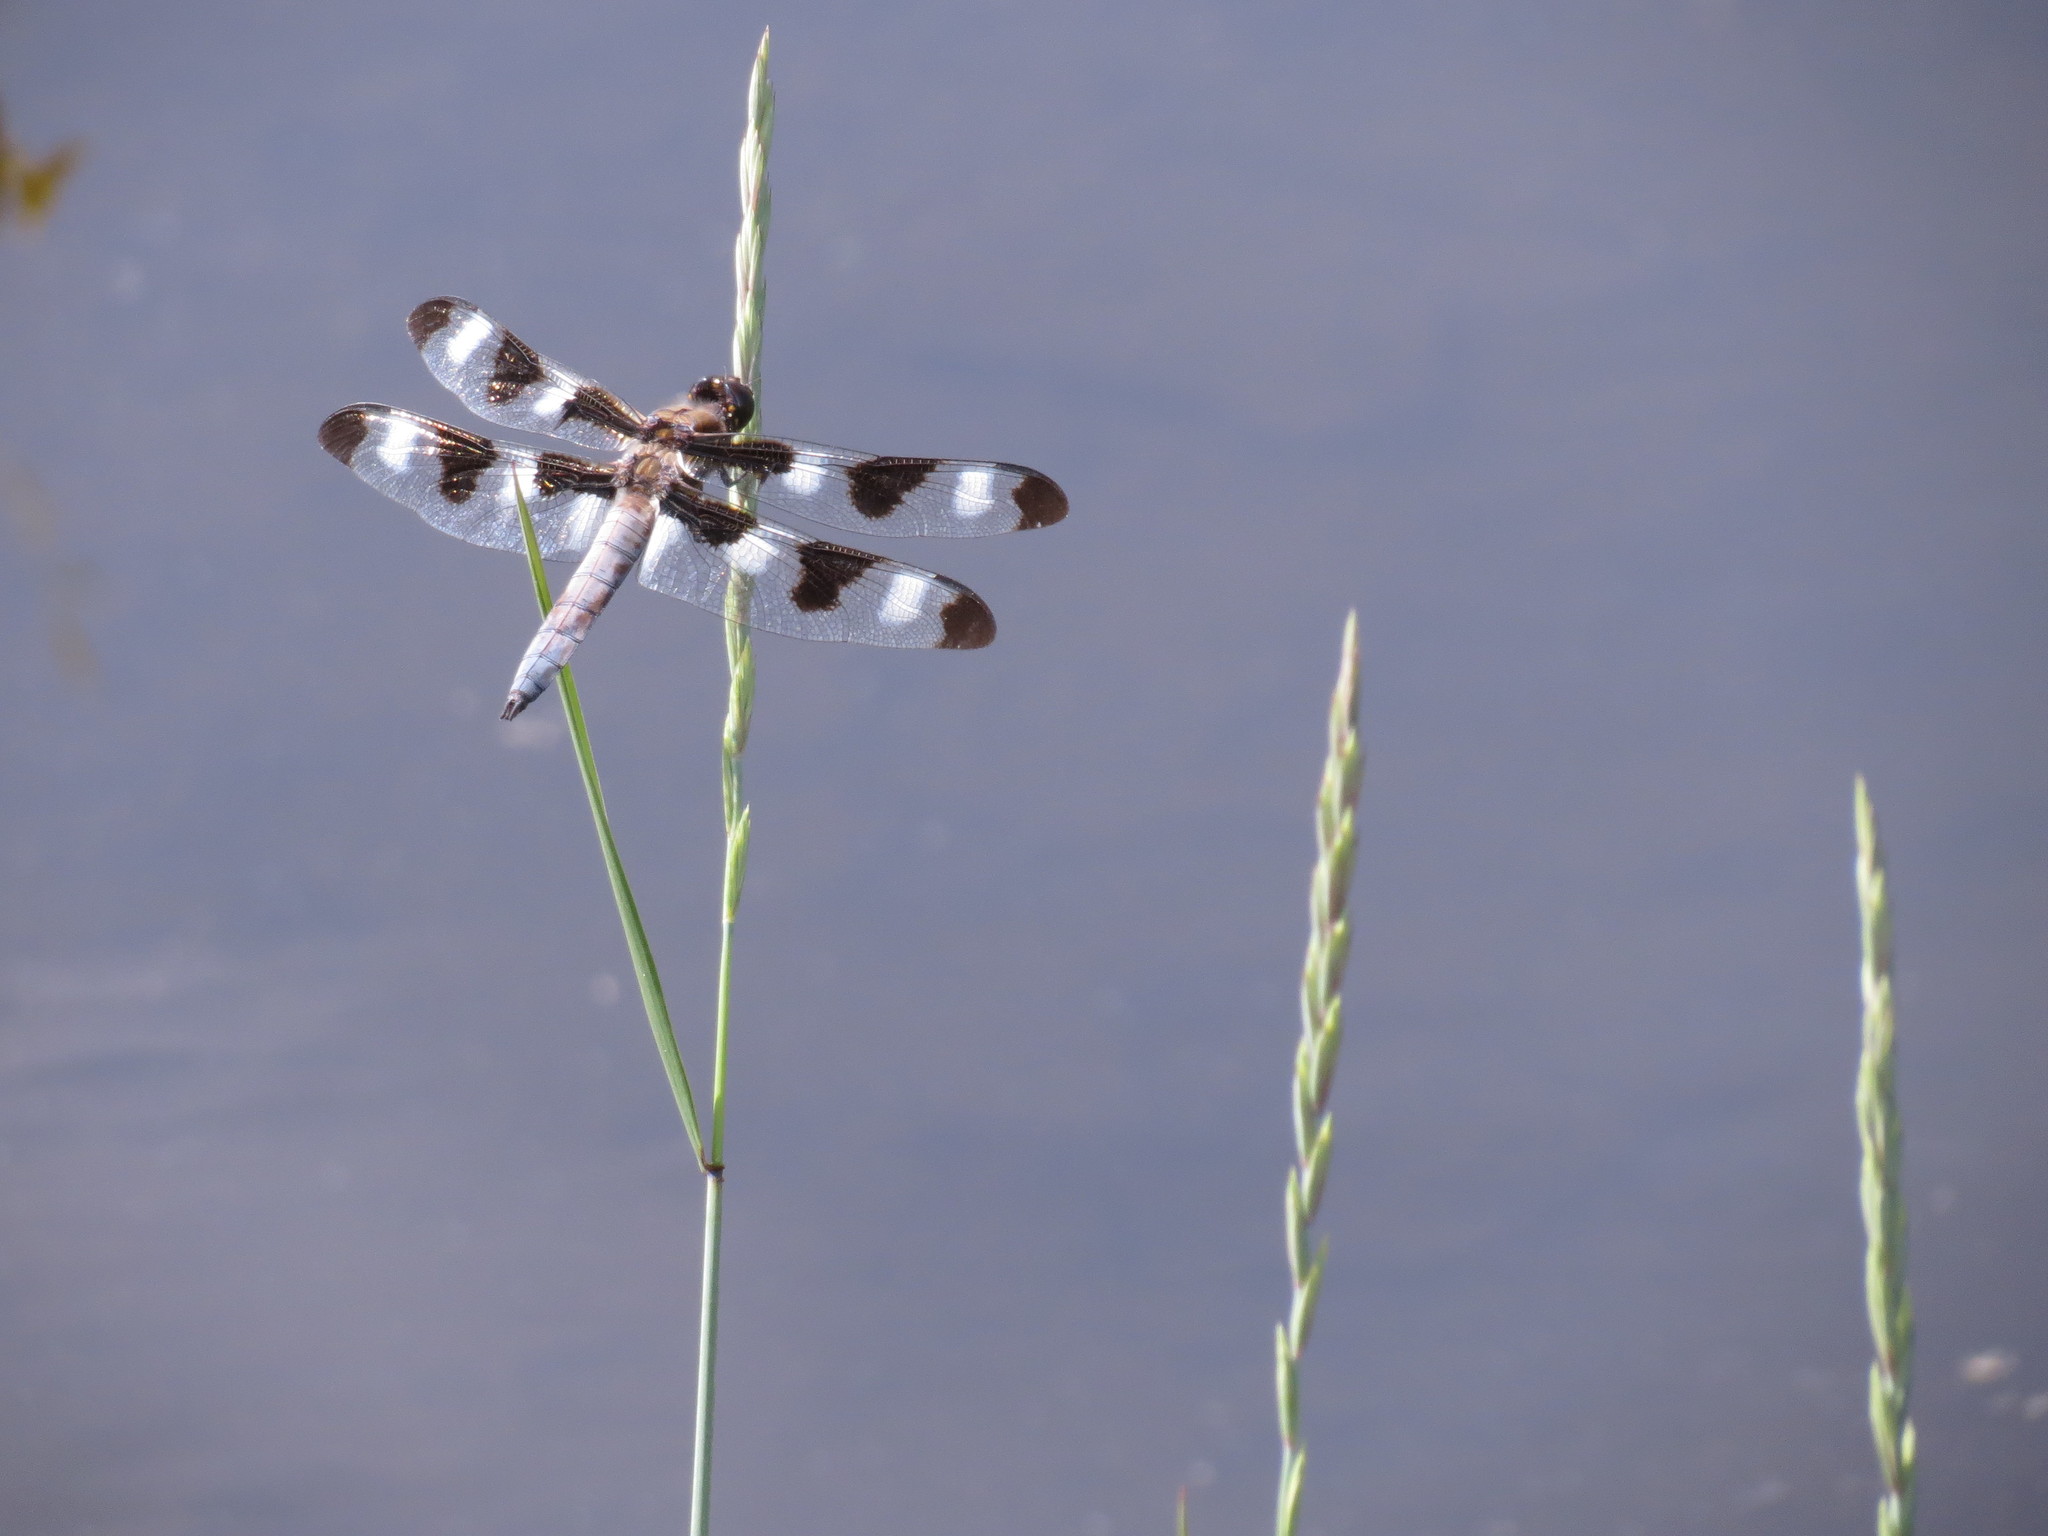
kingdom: Animalia
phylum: Arthropoda
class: Insecta
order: Odonata
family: Libellulidae
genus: Libellula
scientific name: Libellula pulchella
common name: Twelve-spotted skimmer
